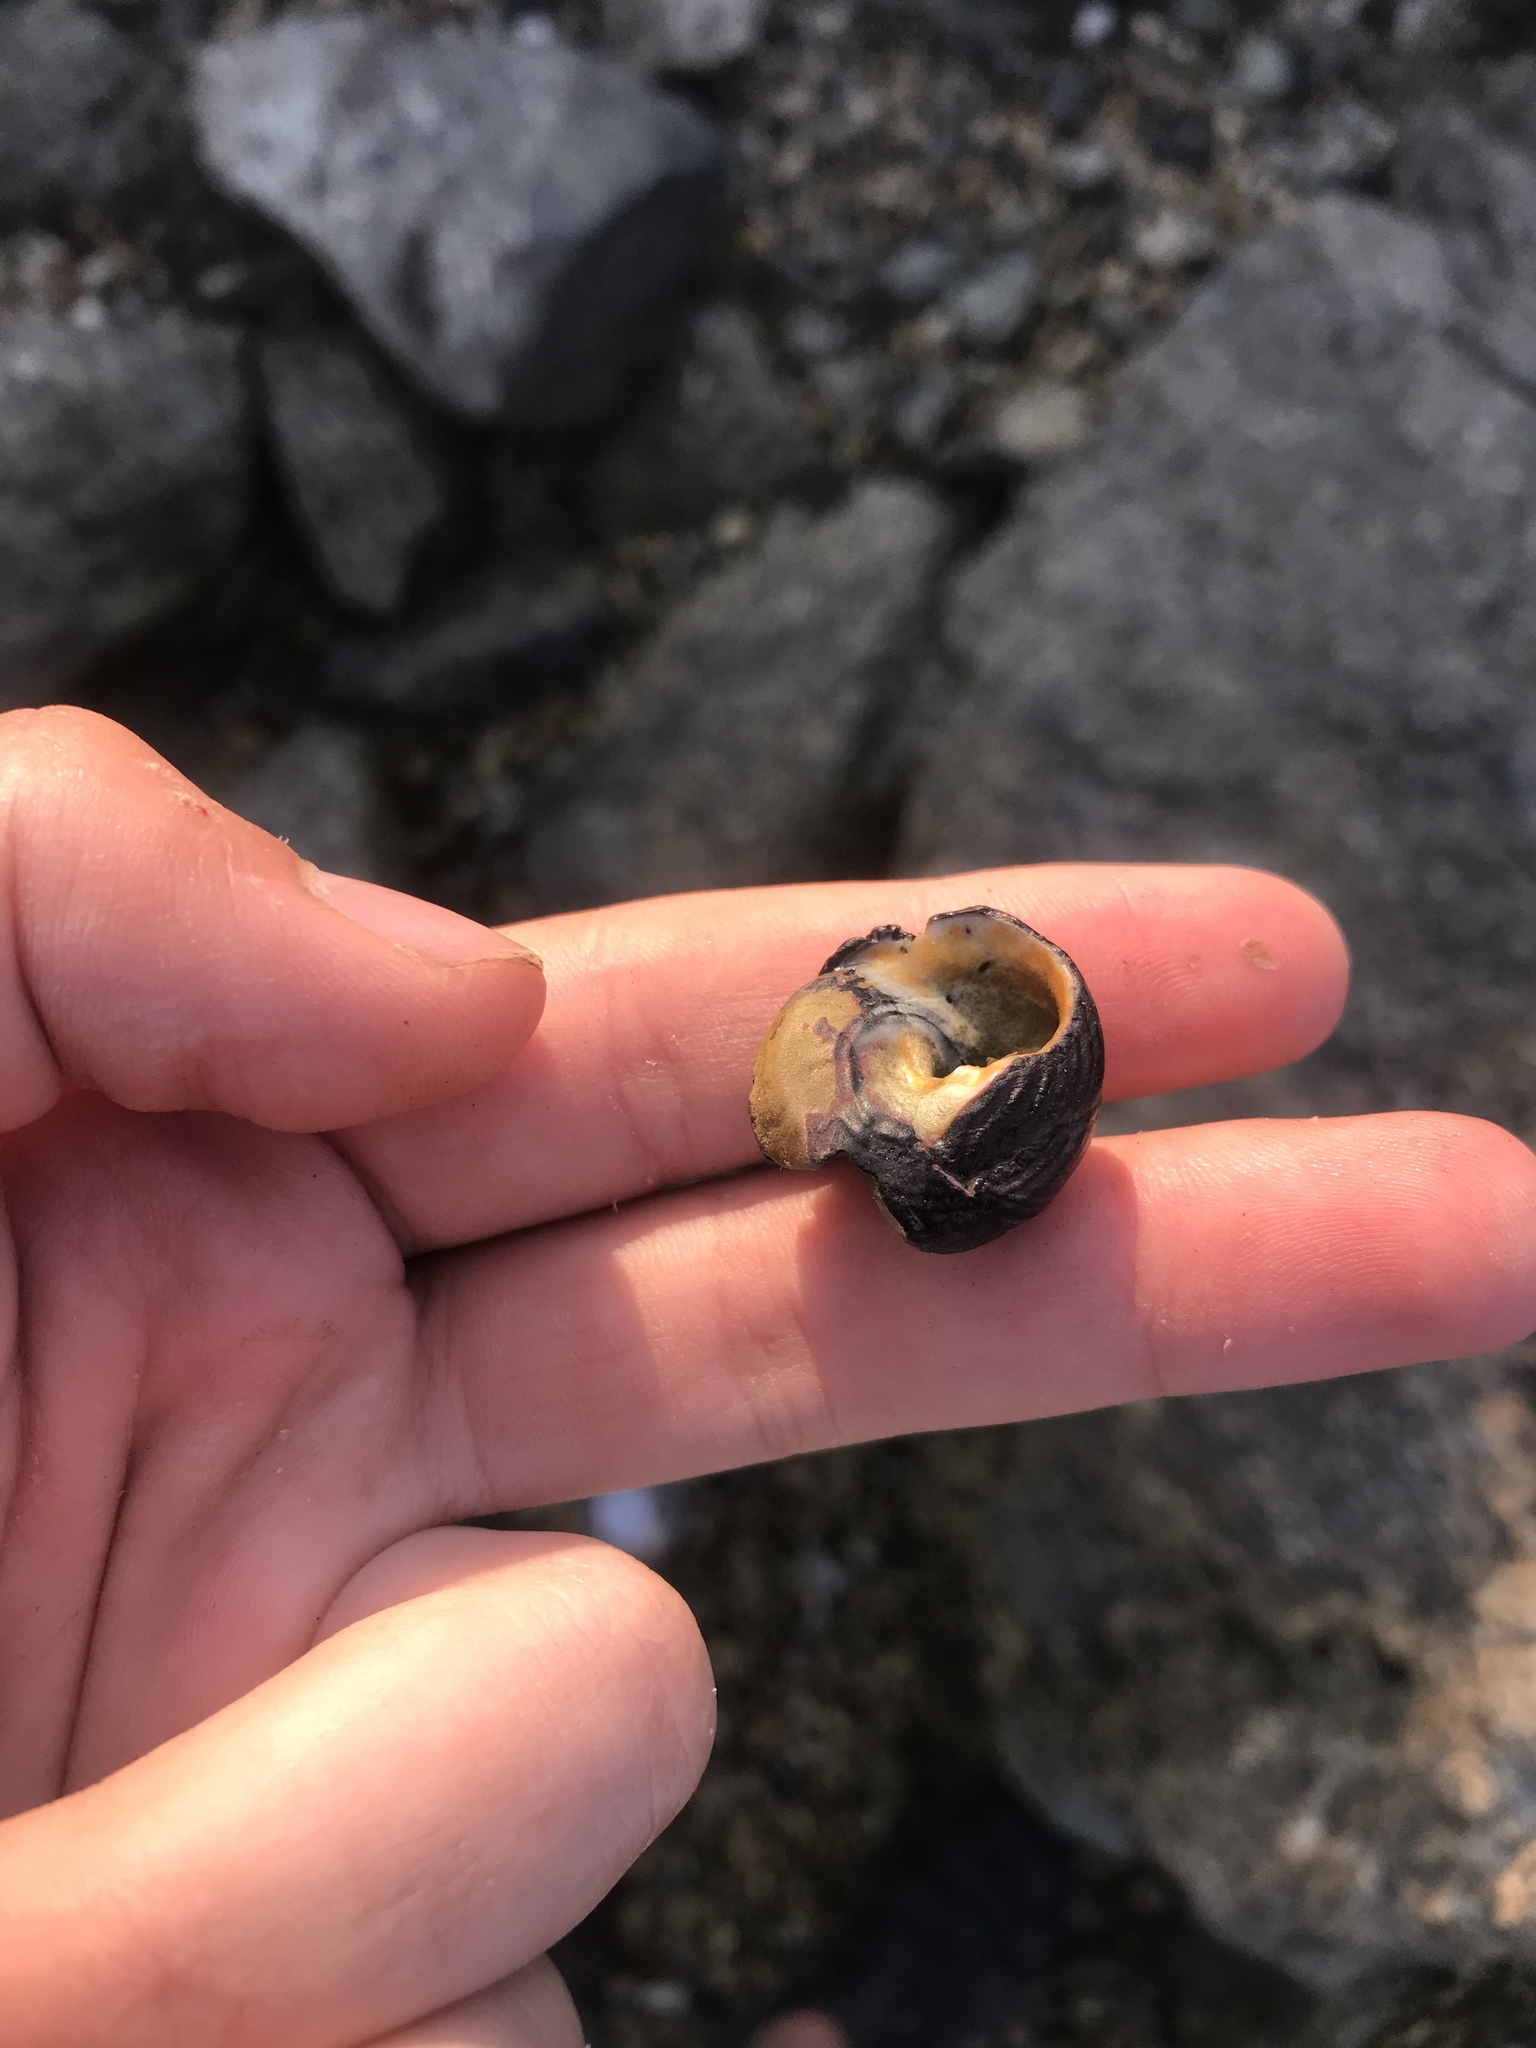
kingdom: Animalia
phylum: Mollusca
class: Gastropoda
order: Trochida
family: Tegulidae
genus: Tegula
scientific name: Tegula funebralis
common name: Black tegula
